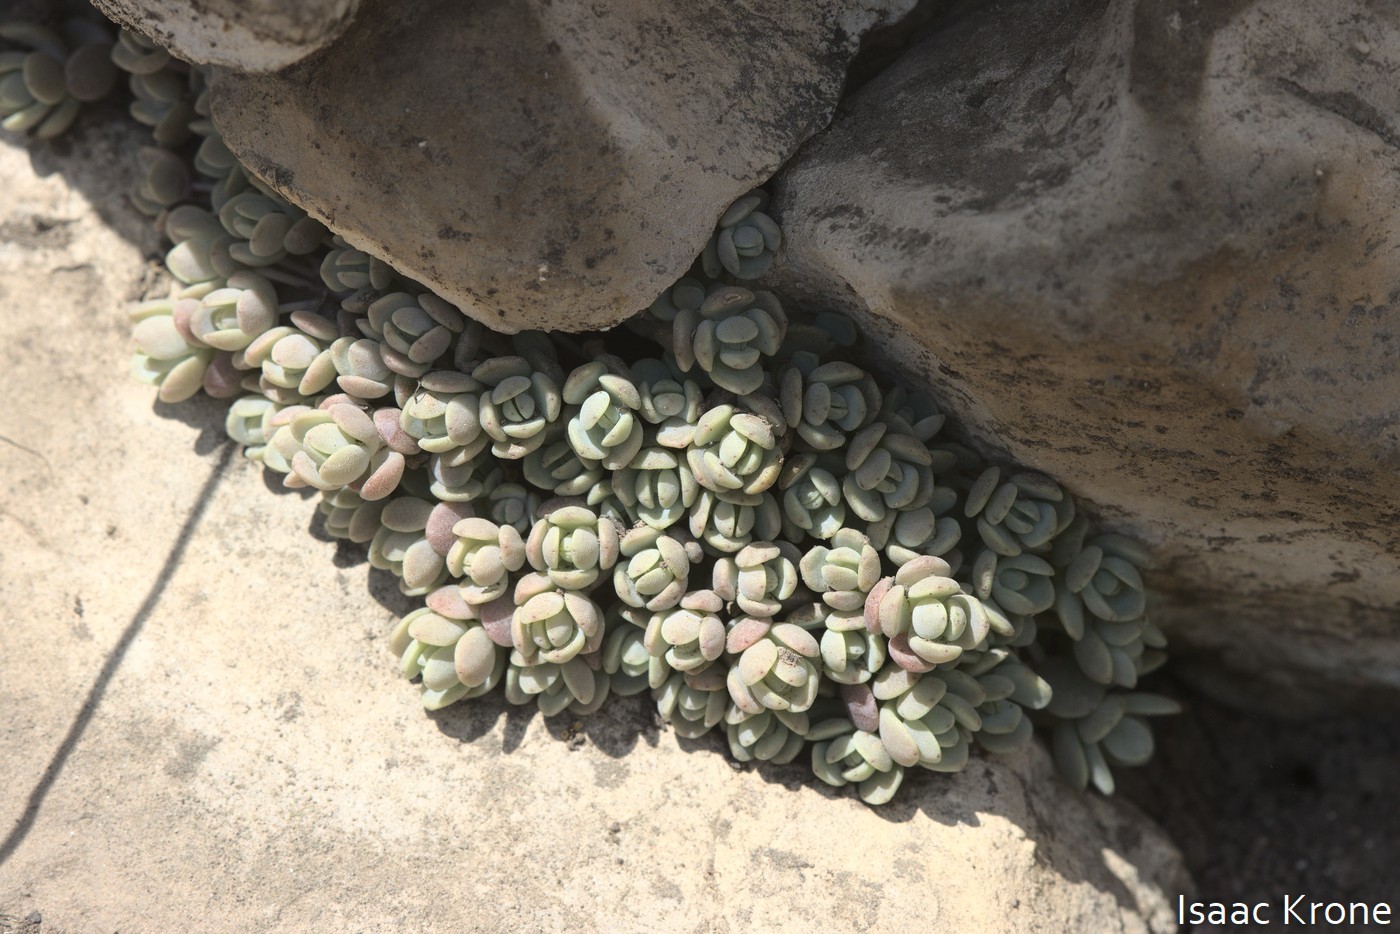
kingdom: Plantae
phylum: Tracheophyta
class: Magnoliopsida
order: Saxifragales
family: Crassulaceae
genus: Sedum
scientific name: Sedum debile
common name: Weak-stem stonecrop
